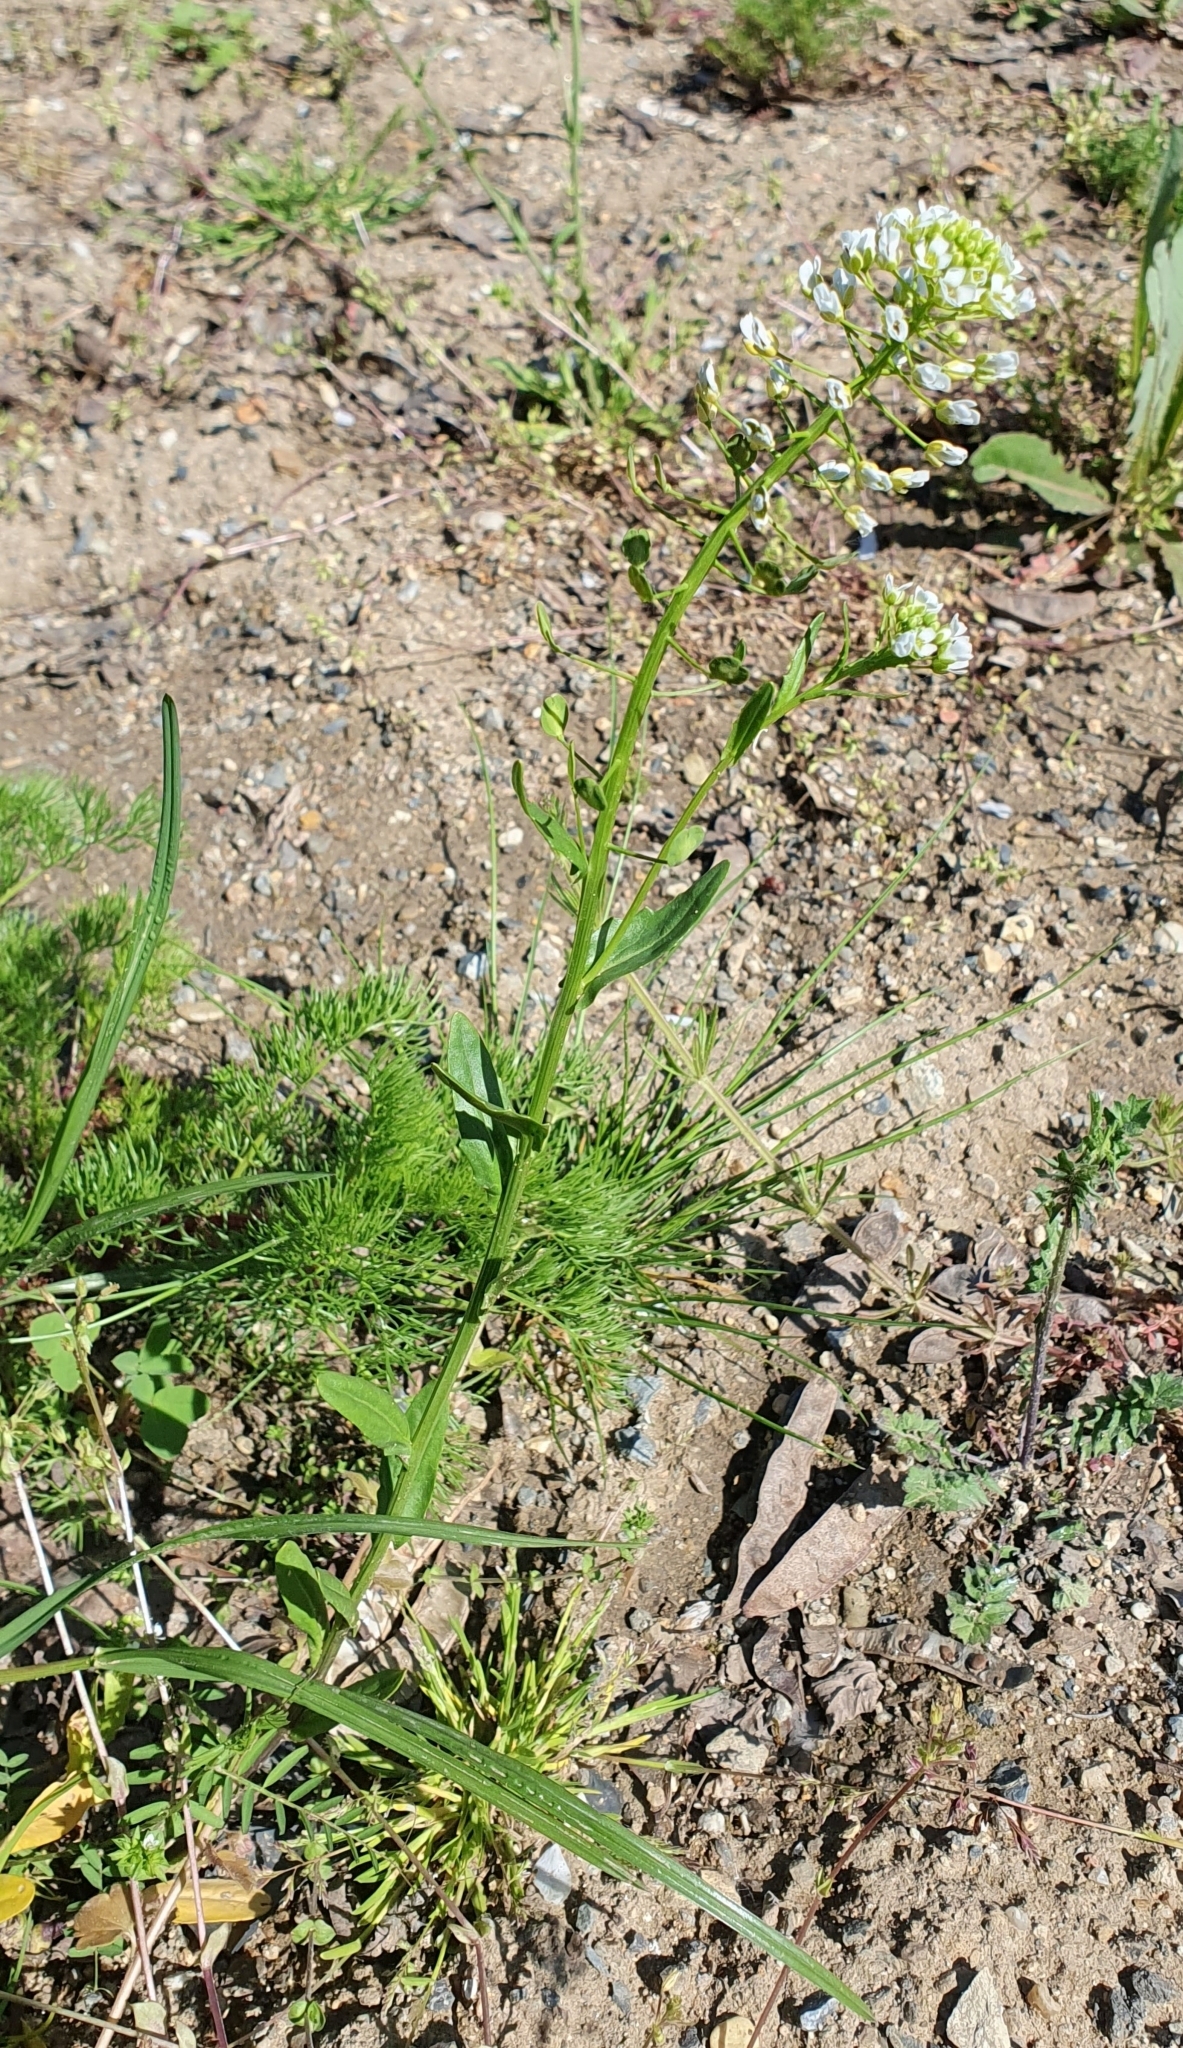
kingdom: Plantae
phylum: Tracheophyta
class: Magnoliopsida
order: Brassicales
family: Brassicaceae
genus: Thlaspi
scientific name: Thlaspi arvense
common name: Field pennycress
